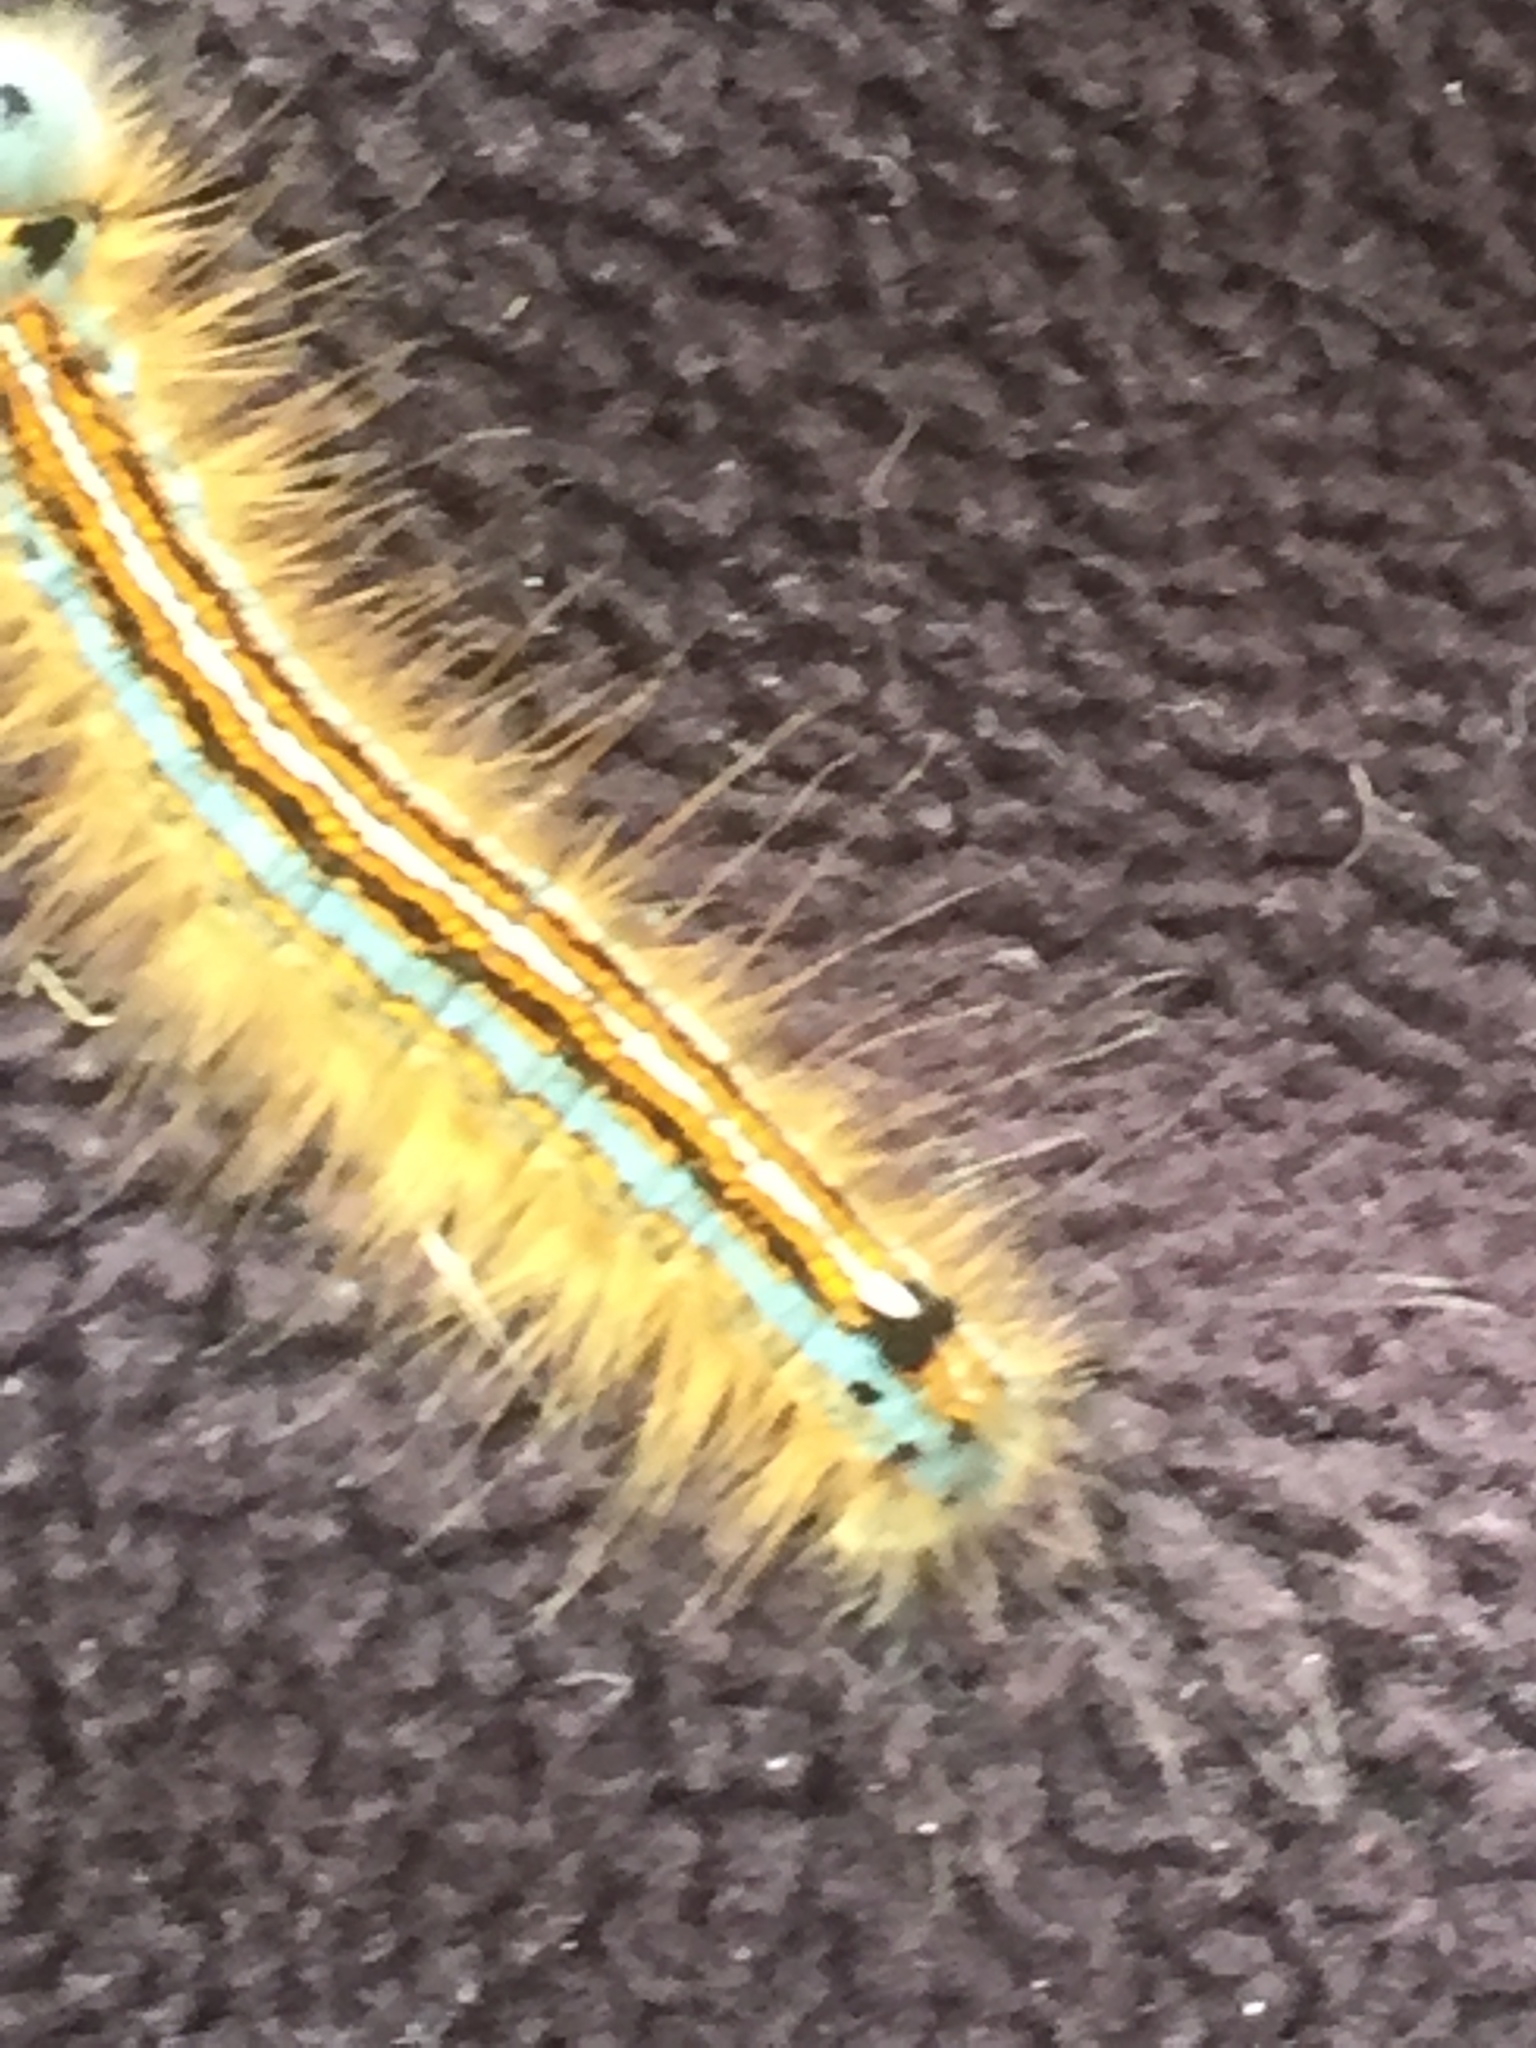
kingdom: Animalia
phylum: Arthropoda
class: Insecta
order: Lepidoptera
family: Lasiocampidae
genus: Malacosoma
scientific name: Malacosoma neustria
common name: The lackey
